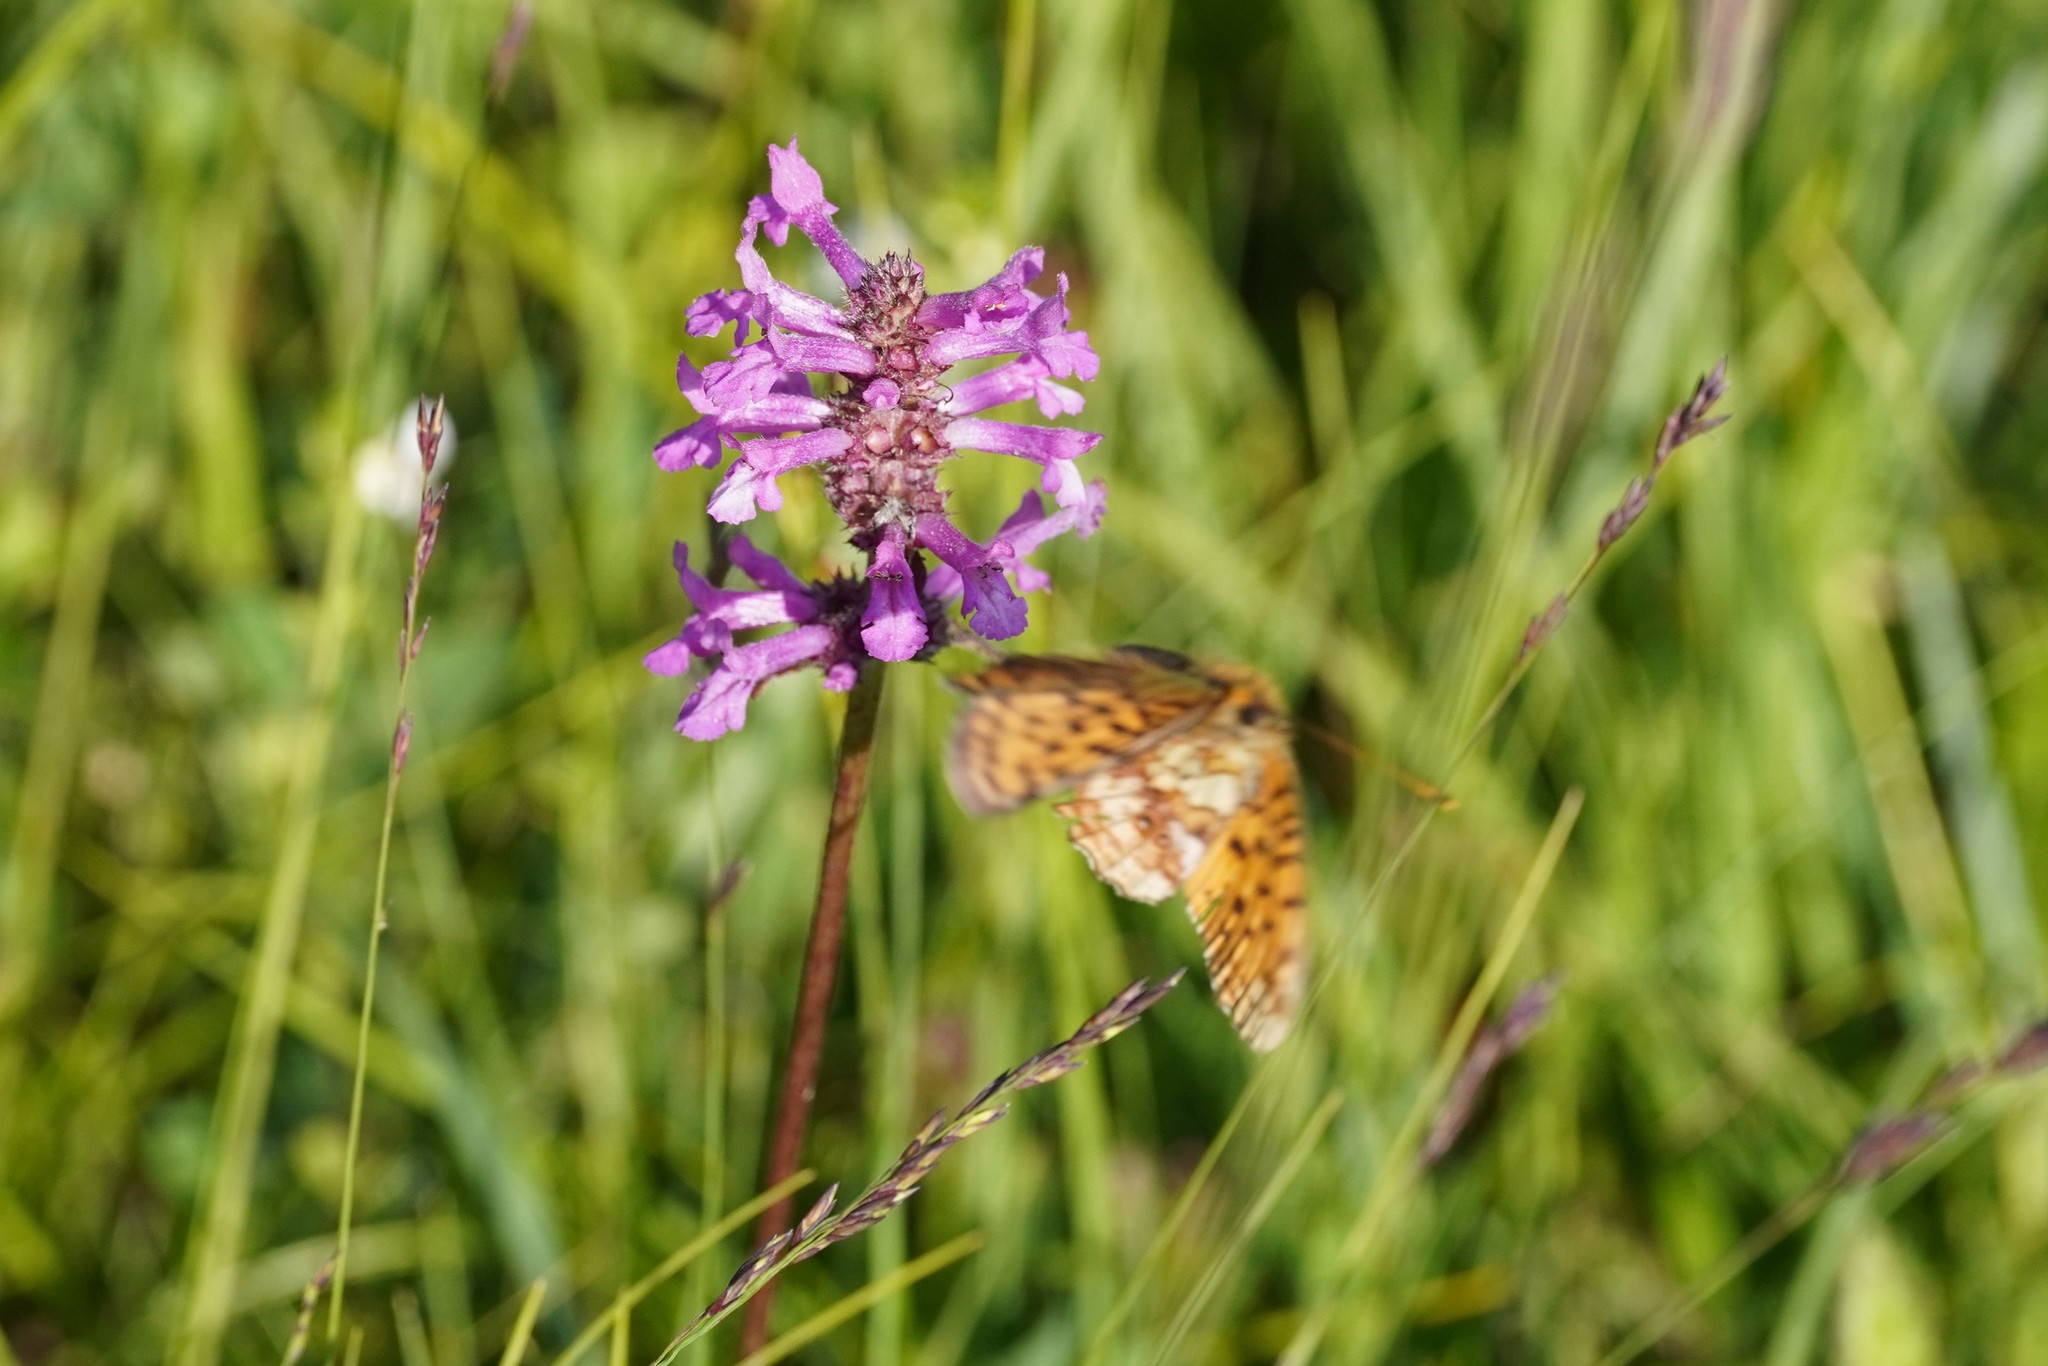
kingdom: Animalia
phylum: Arthropoda
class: Insecta
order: Lepidoptera
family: Nymphalidae
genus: Brenthis
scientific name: Brenthis ino
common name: Lesser marbled fritillary
